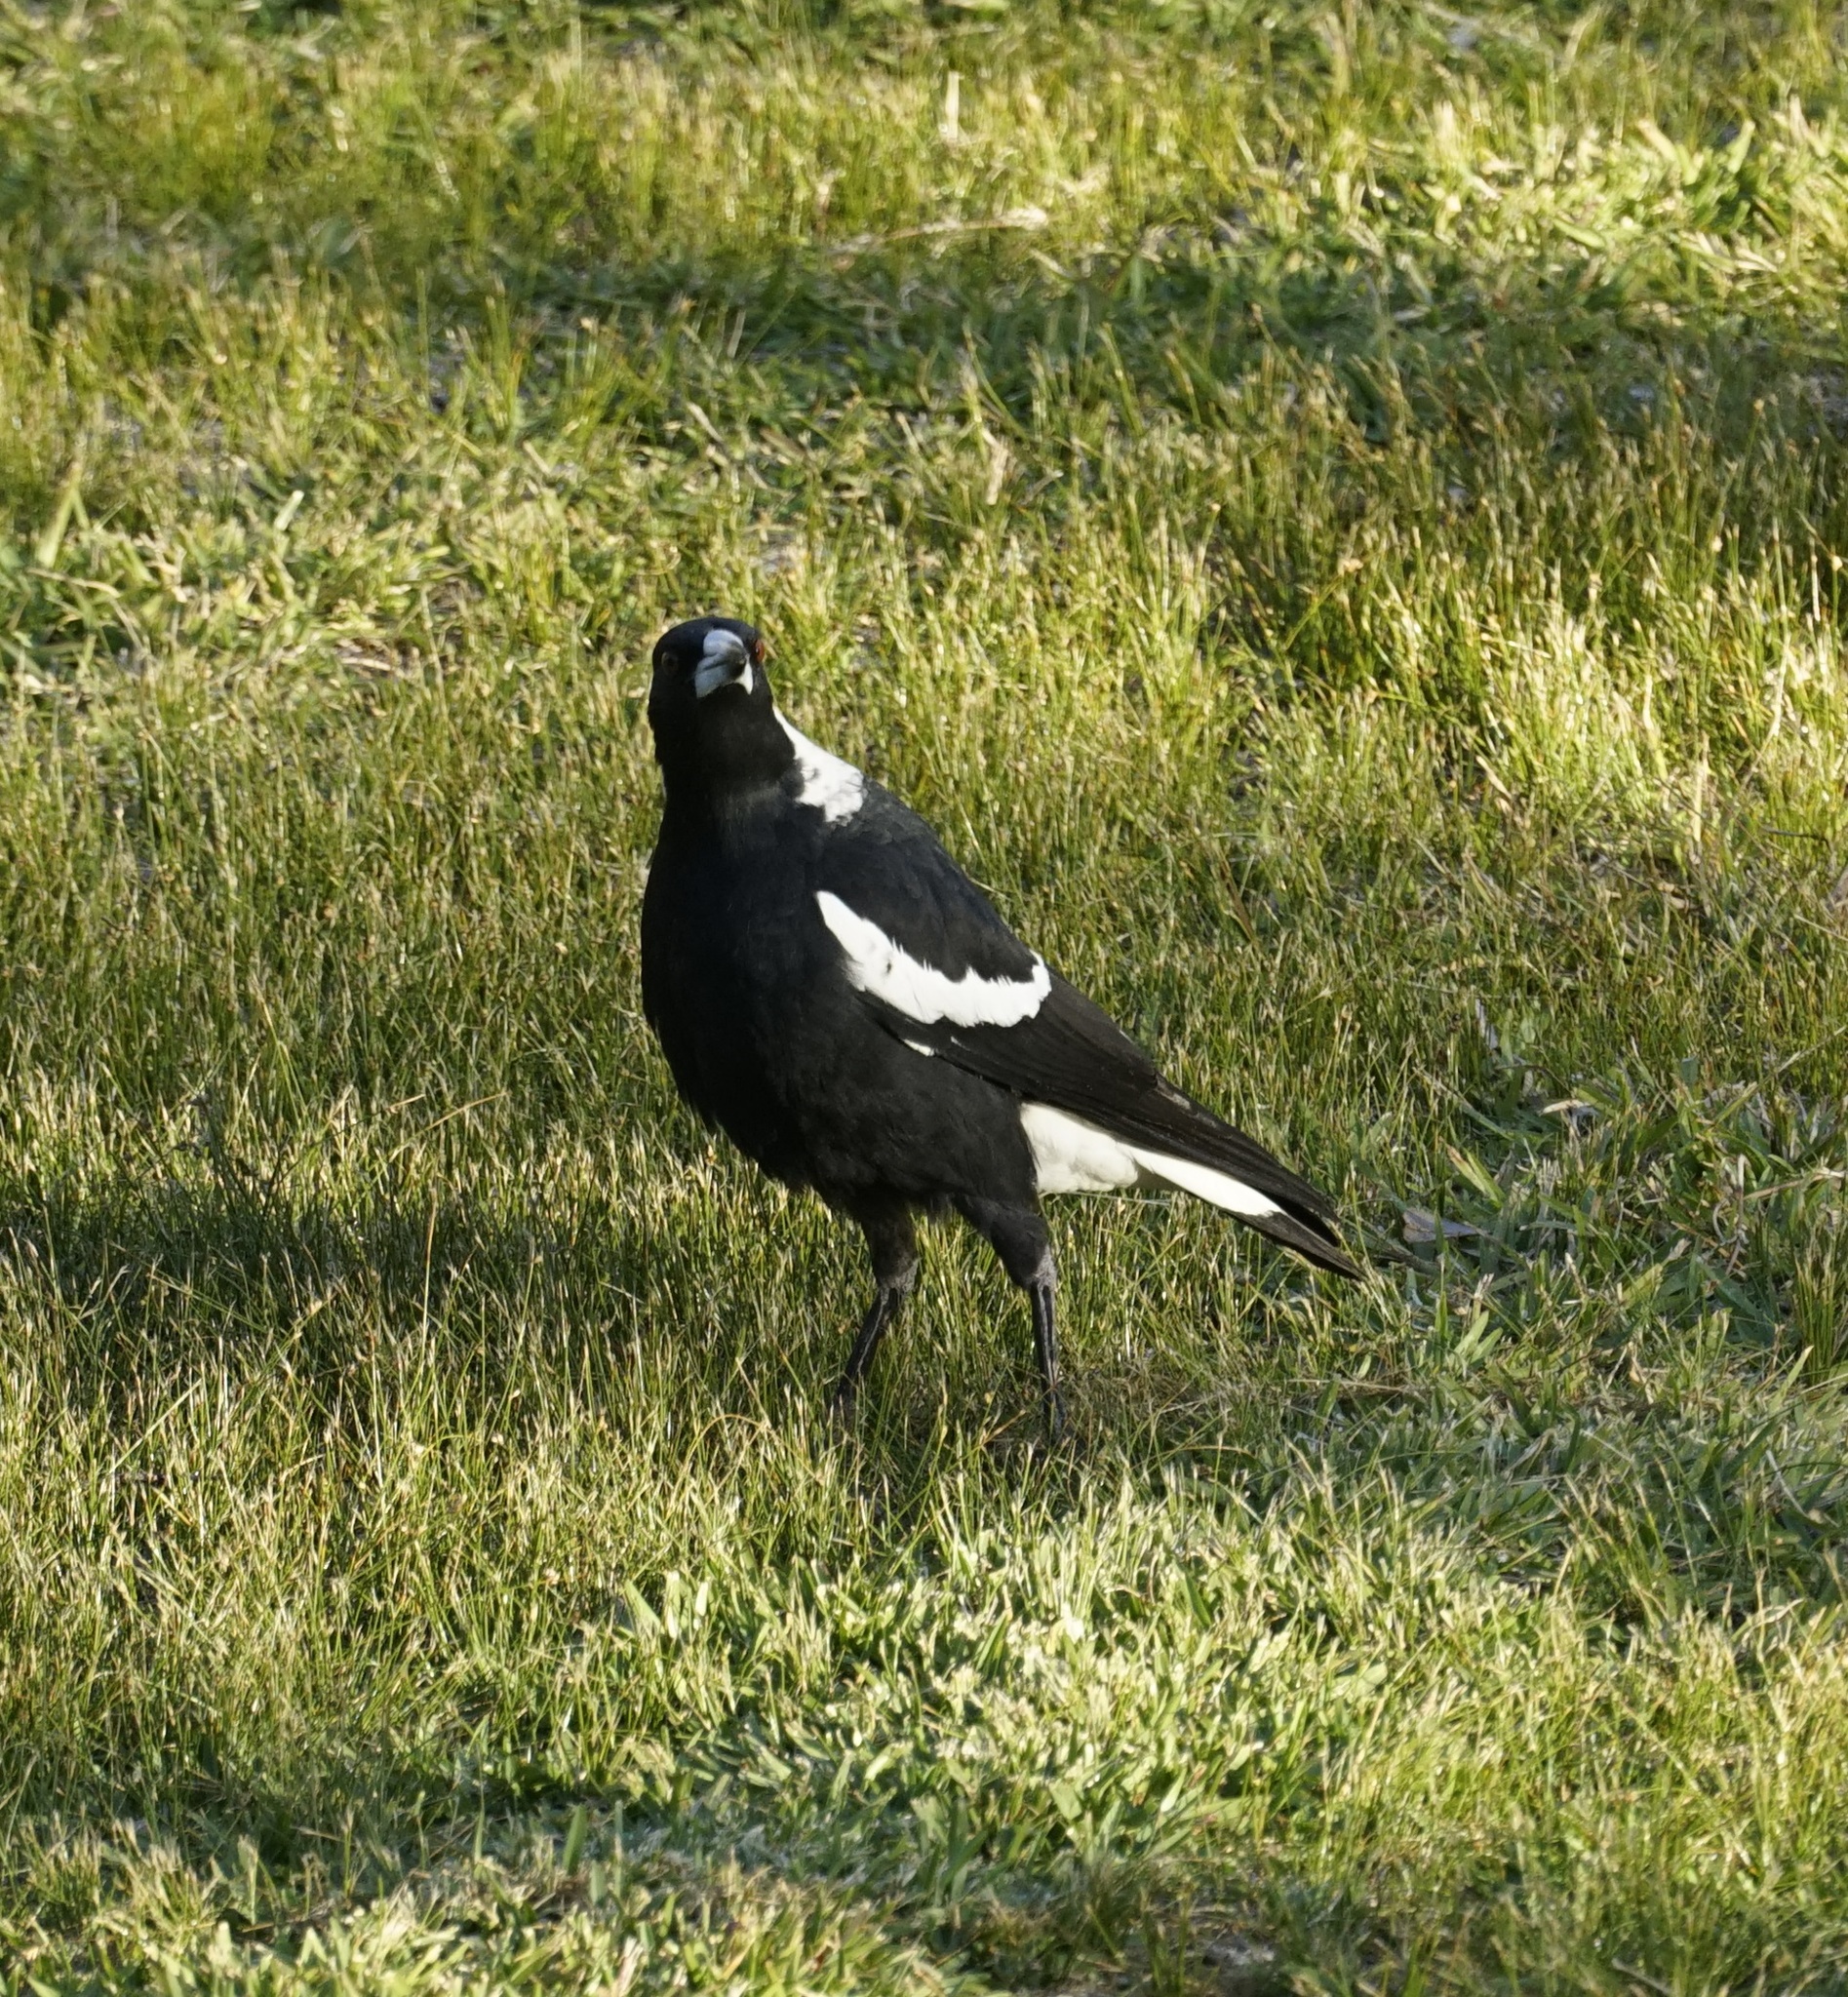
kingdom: Animalia
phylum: Chordata
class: Aves
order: Passeriformes
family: Cracticidae
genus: Gymnorhina
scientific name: Gymnorhina tibicen
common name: Australian magpie
